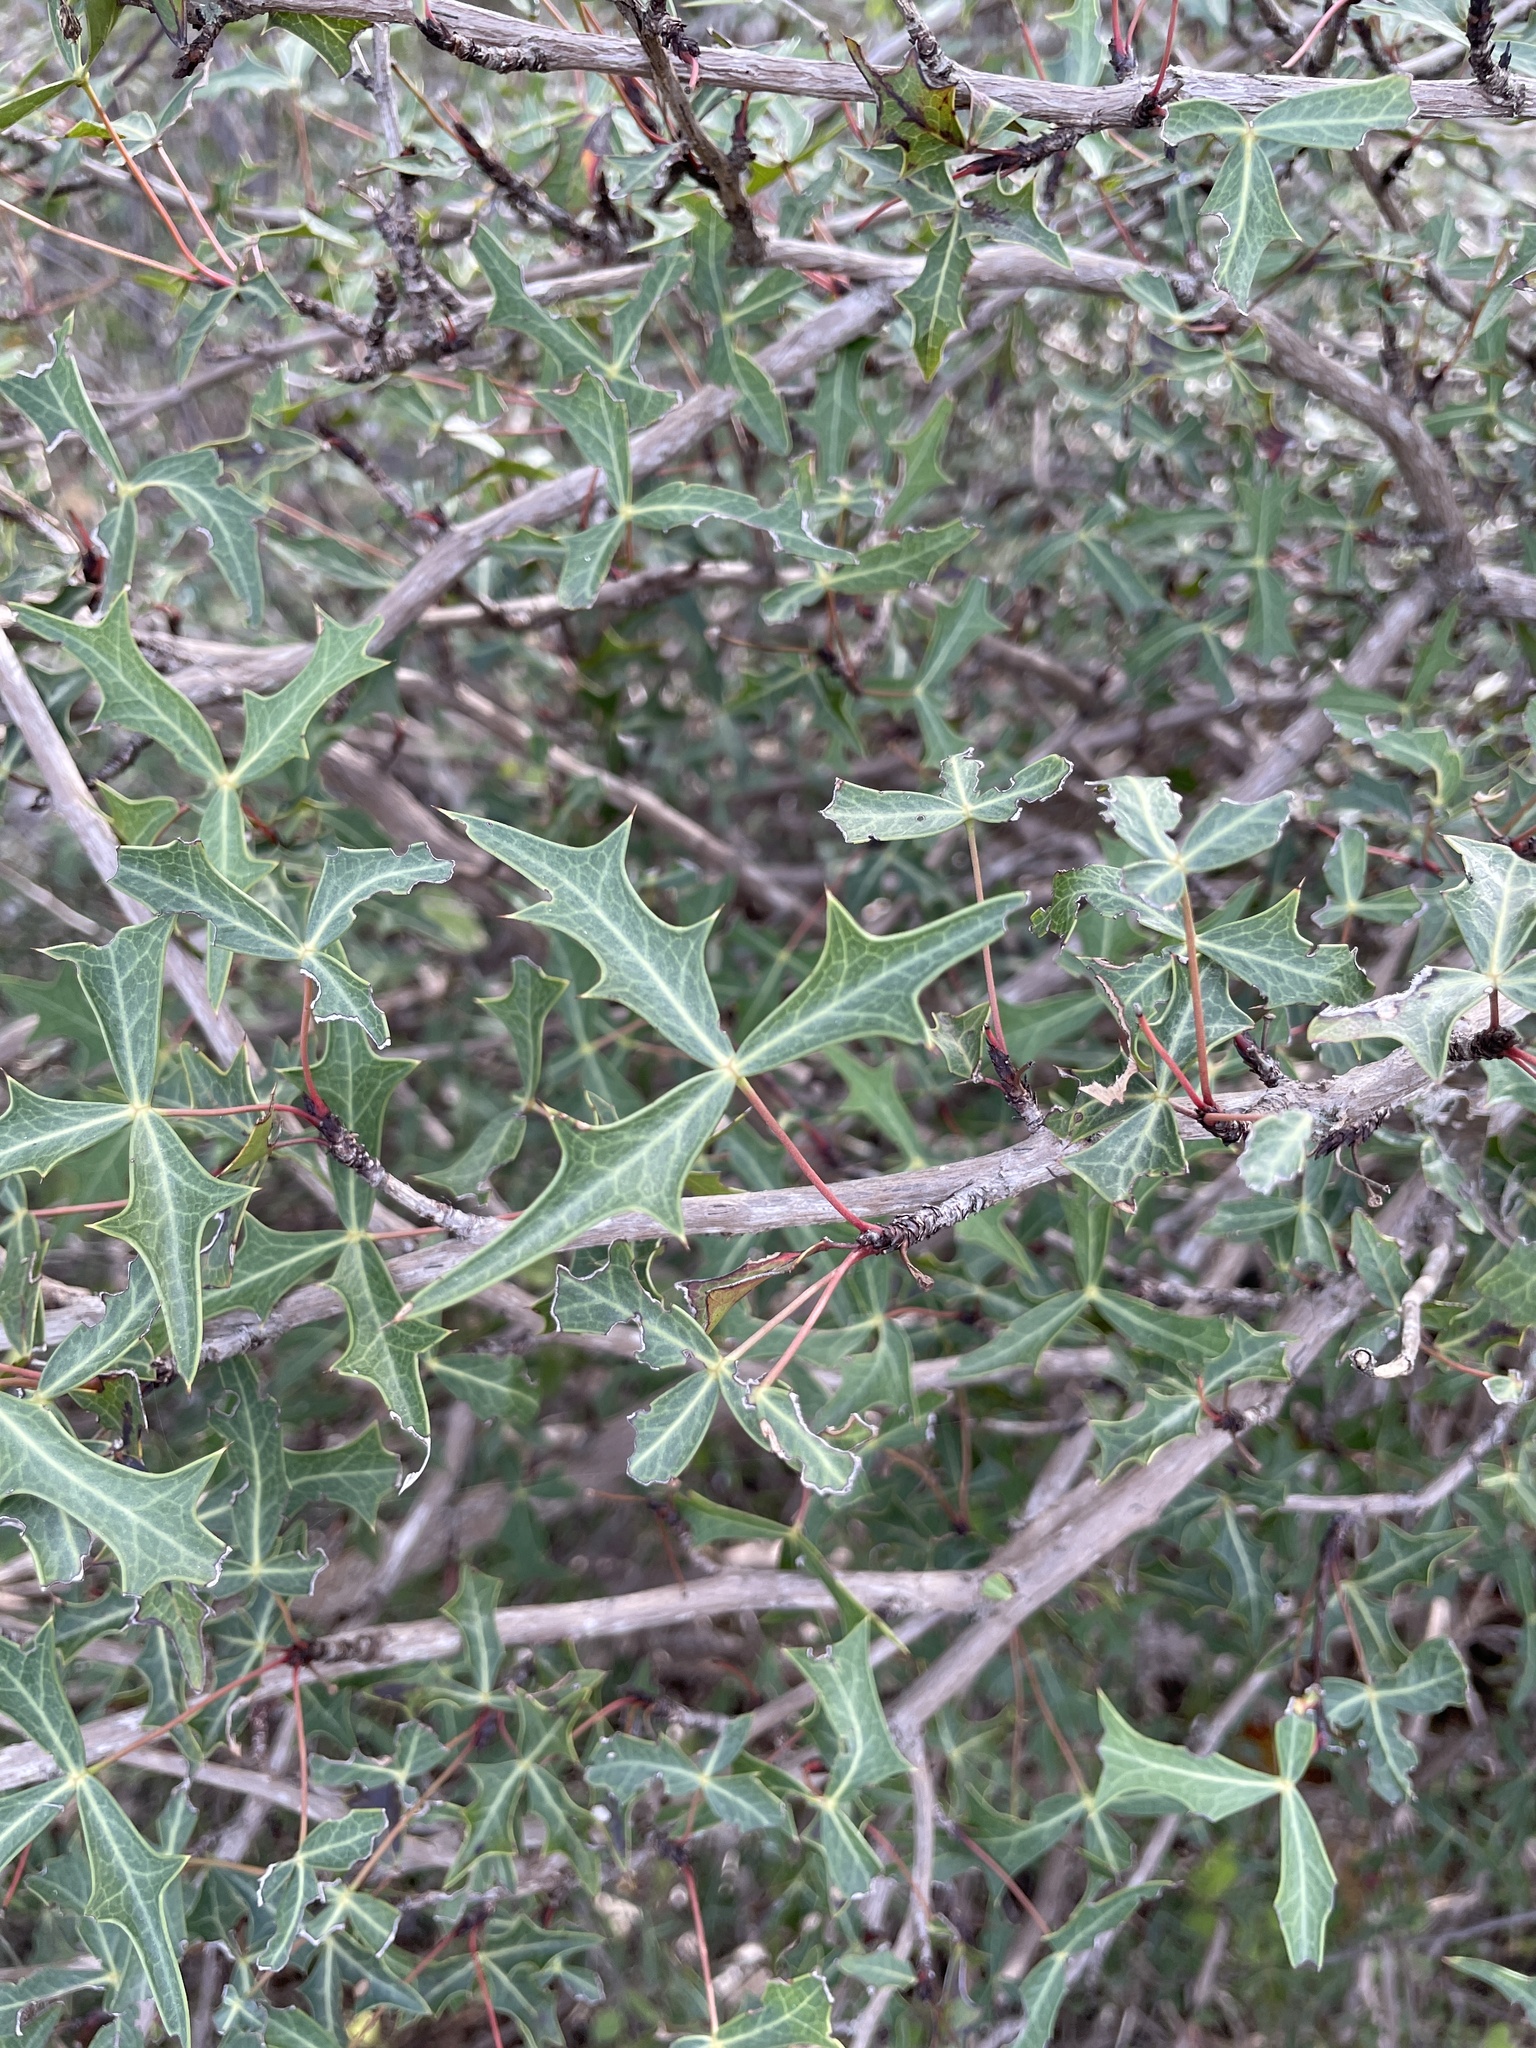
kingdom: Plantae
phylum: Tracheophyta
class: Magnoliopsida
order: Ranunculales
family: Berberidaceae
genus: Alloberberis
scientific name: Alloberberis trifoliolata
